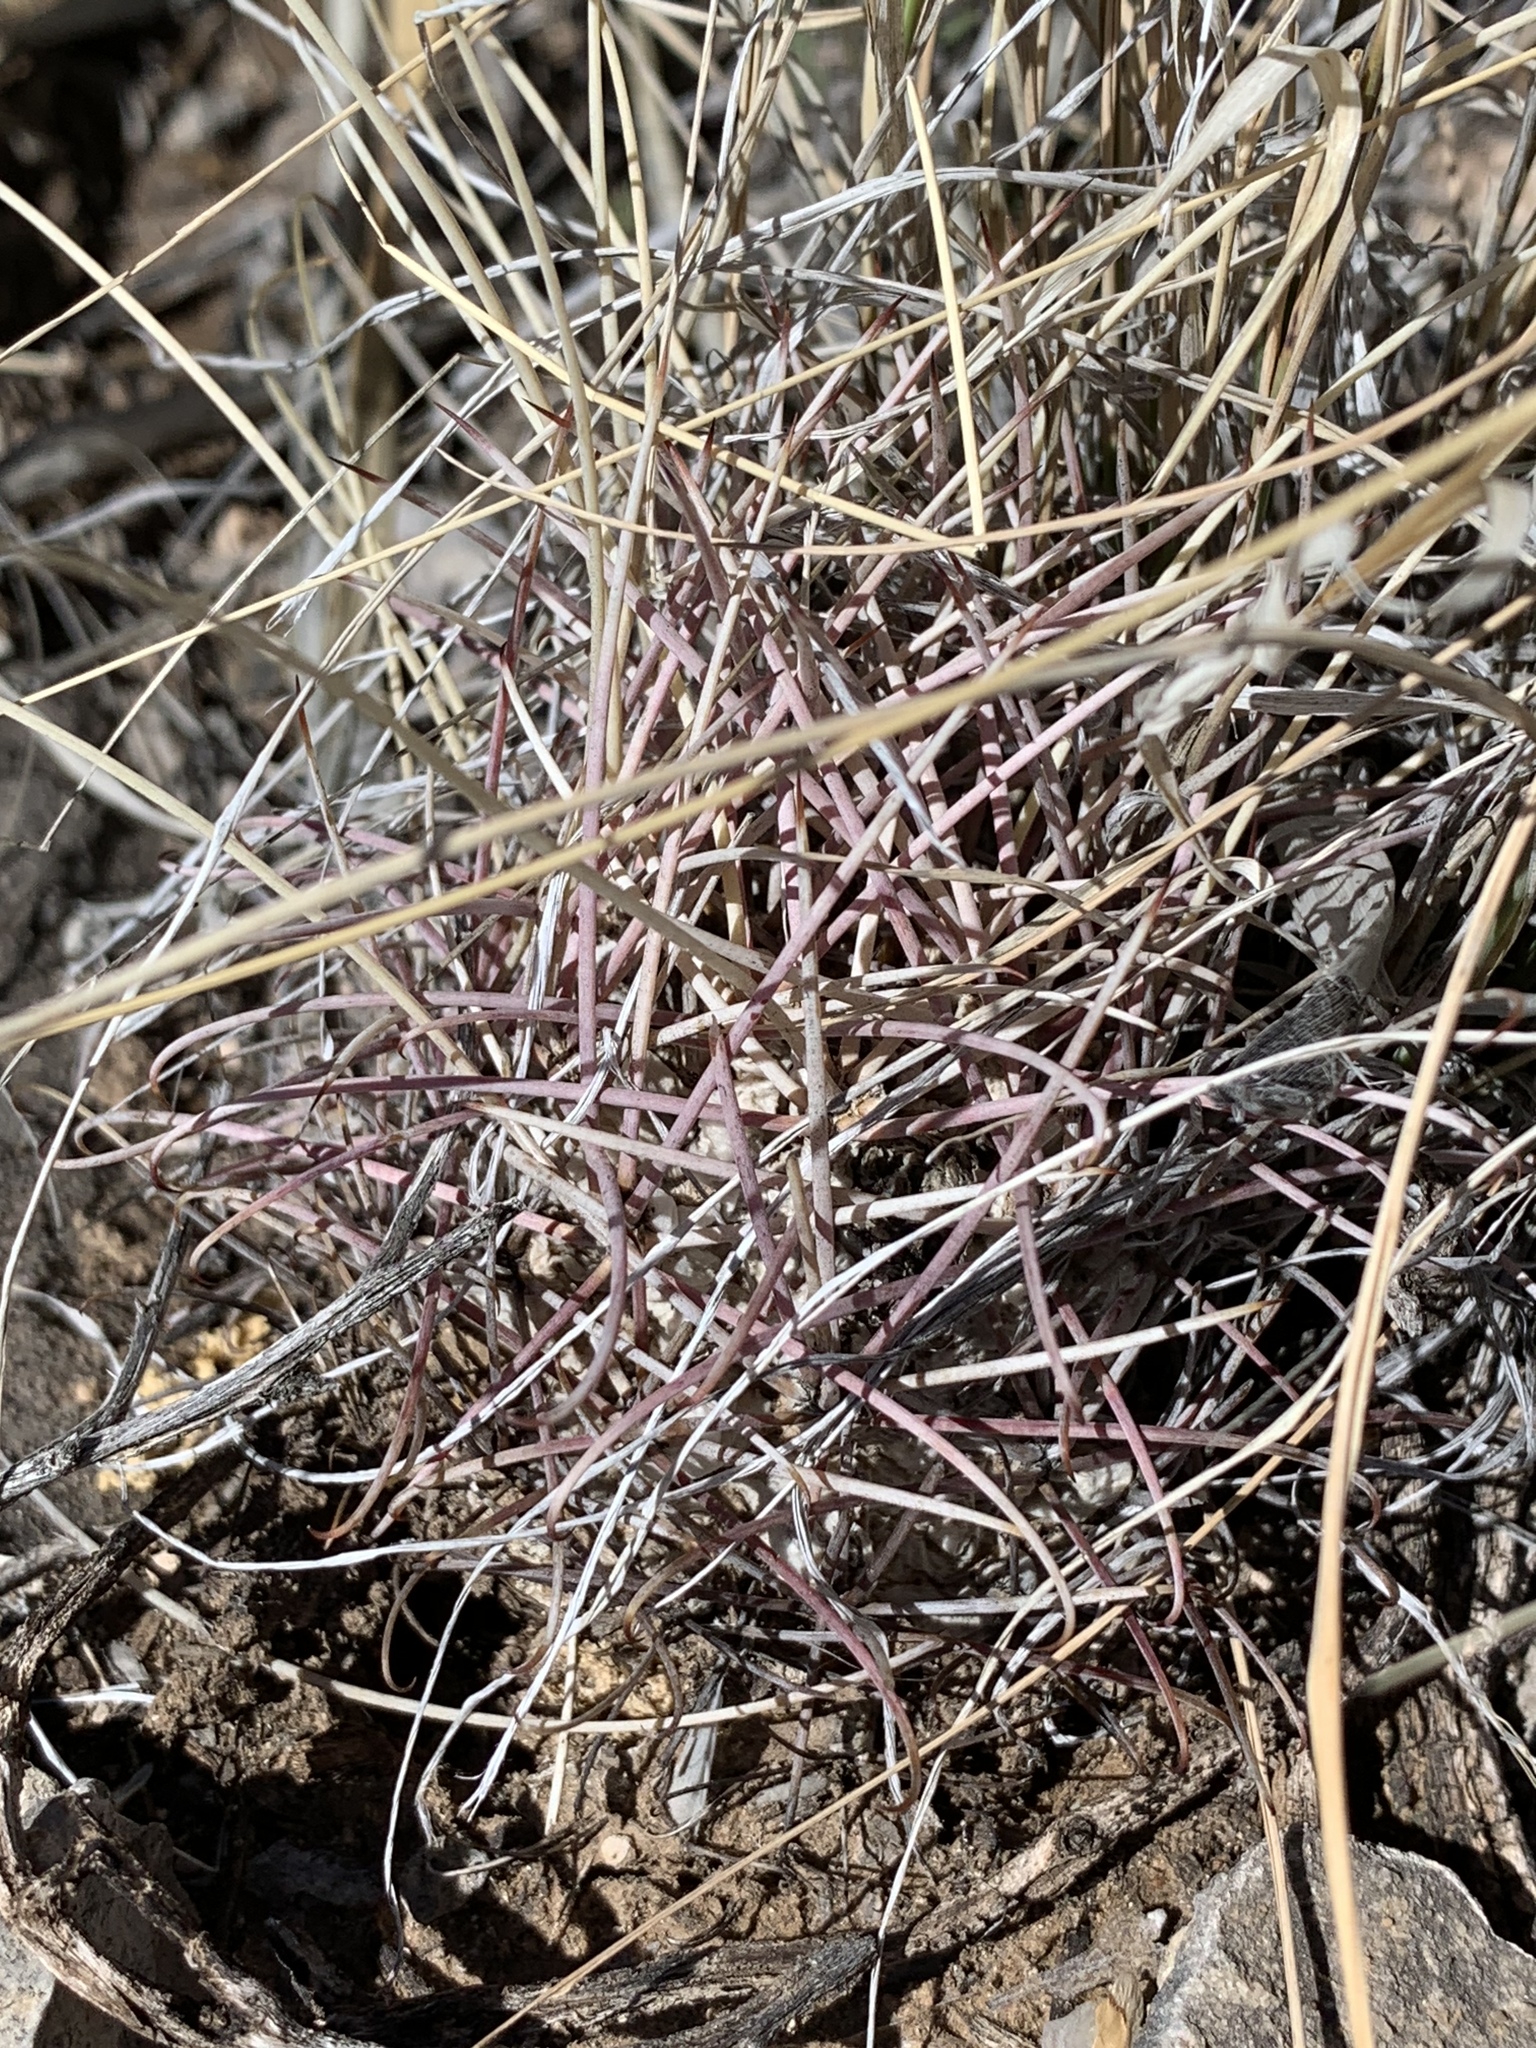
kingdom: Plantae
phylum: Tracheophyta
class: Magnoliopsida
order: Caryophyllales
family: Cactaceae
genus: Ferocactus
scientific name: Ferocactus uncinatus
